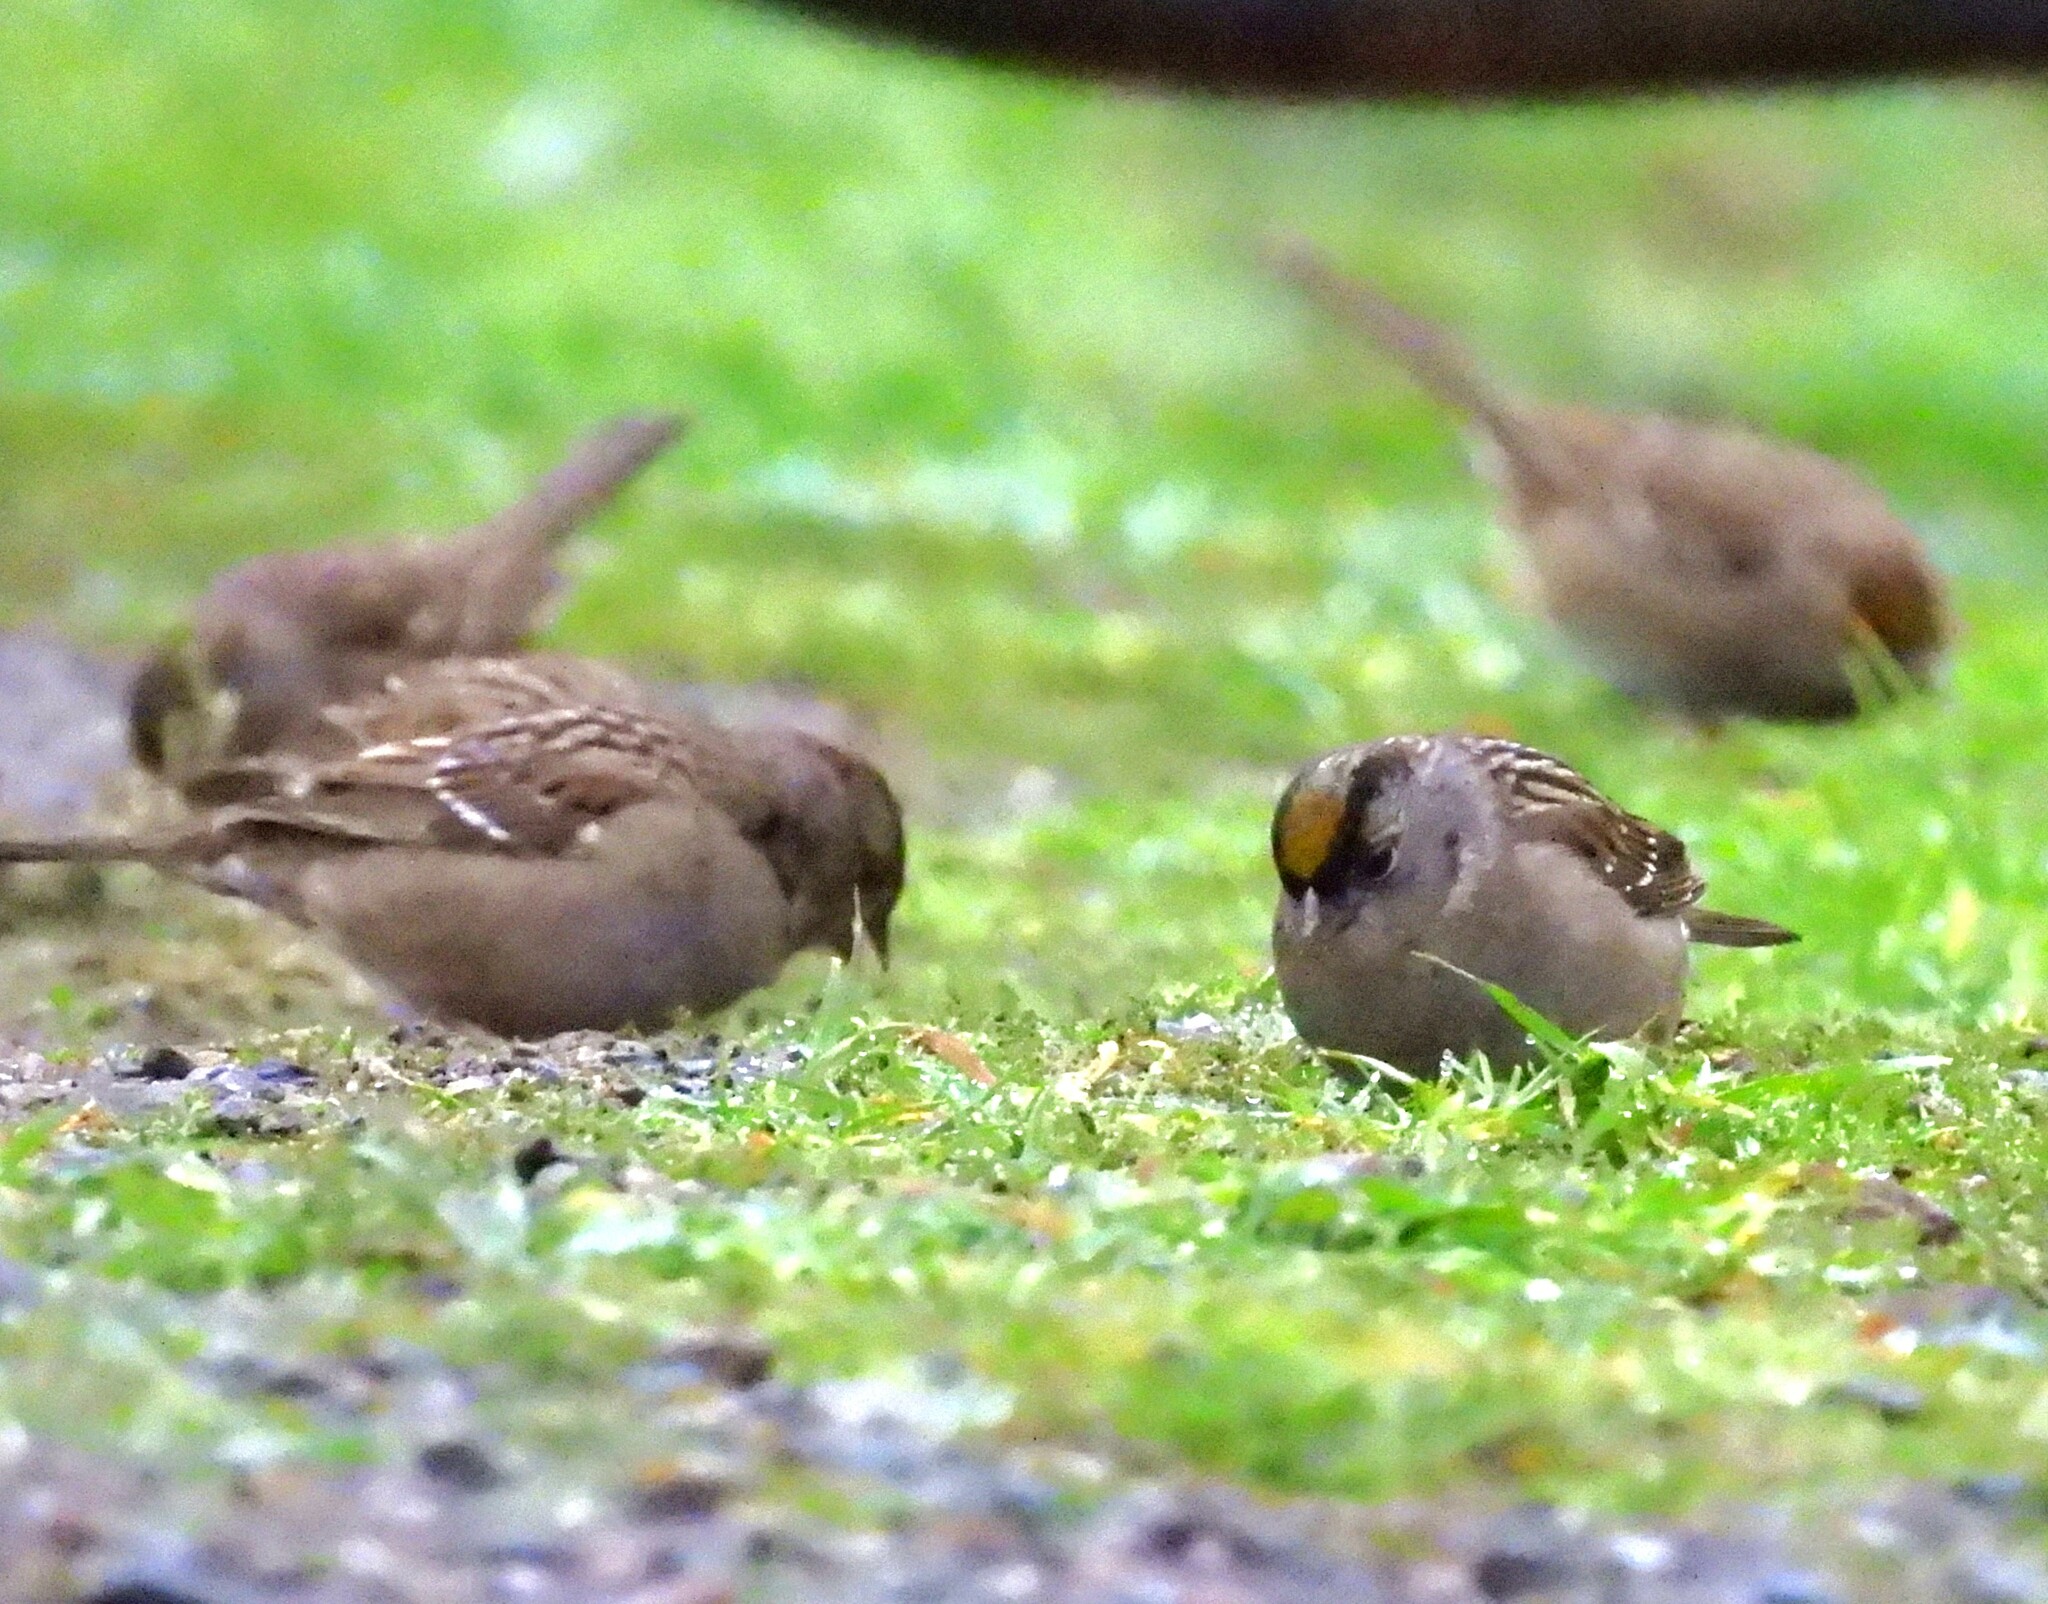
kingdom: Animalia
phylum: Chordata
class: Aves
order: Passeriformes
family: Passerellidae
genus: Zonotrichia
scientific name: Zonotrichia atricapilla
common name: Golden-crowned sparrow
